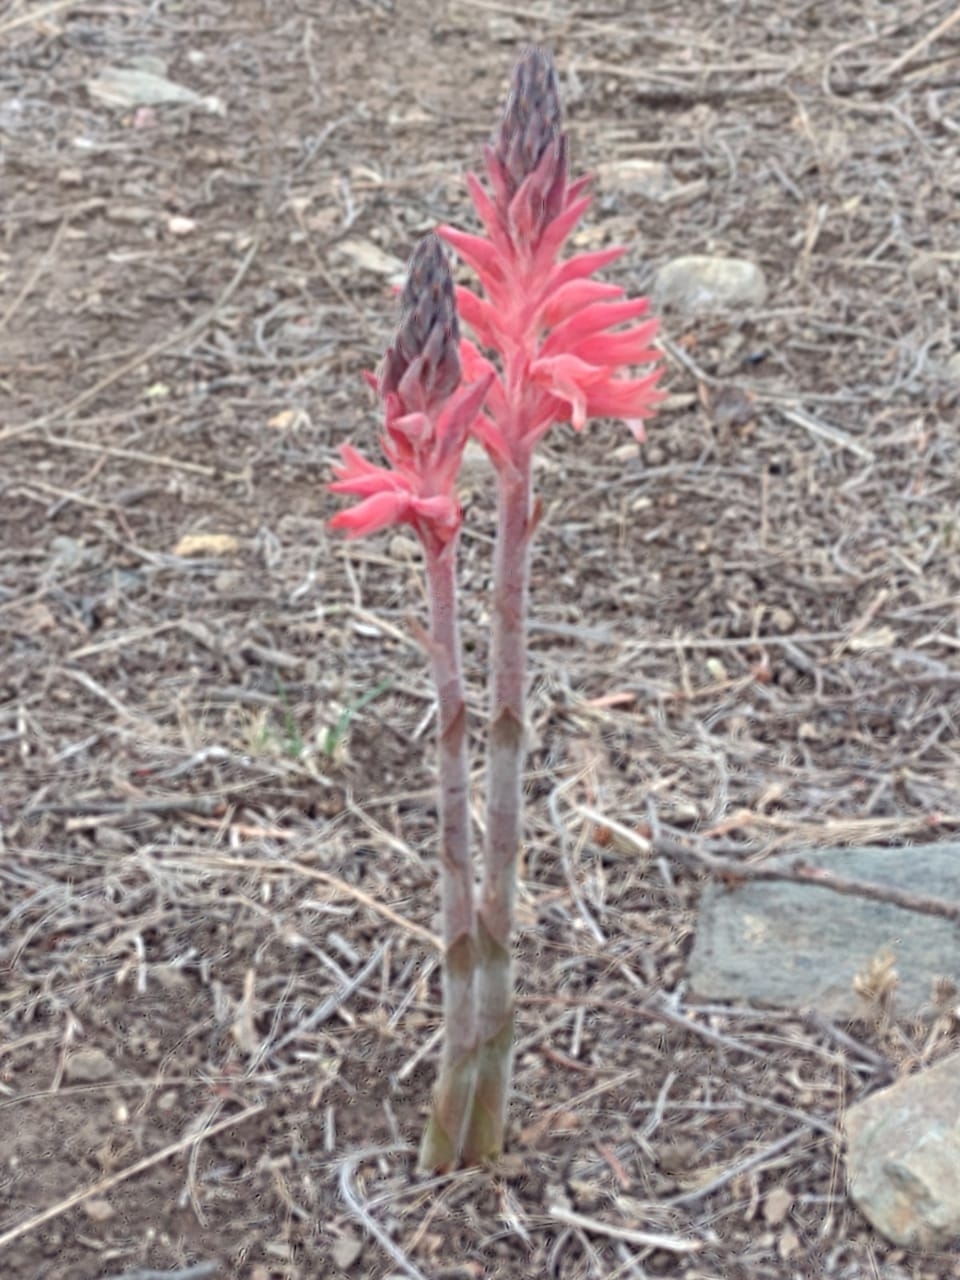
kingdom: Plantae
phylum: Tracheophyta
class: Liliopsida
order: Asparagales
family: Orchidaceae
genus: Sacoila
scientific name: Sacoila lanceolata
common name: Leafless beaked ladiestresses
